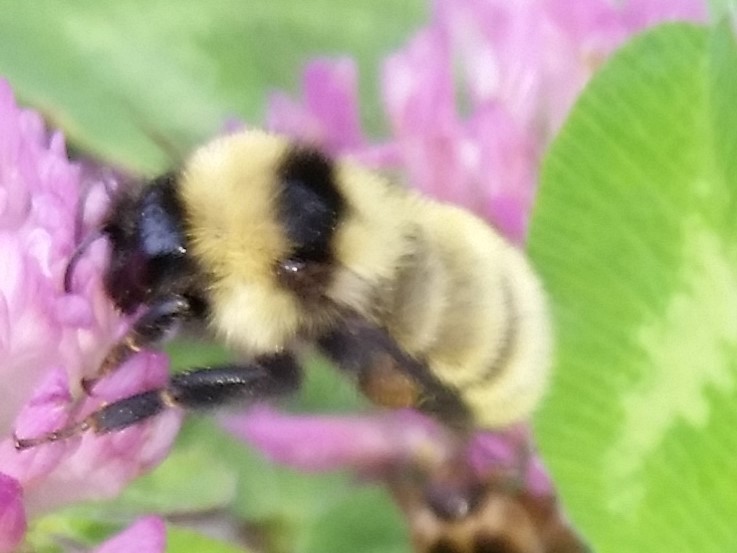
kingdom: Animalia
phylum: Arthropoda
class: Insecta
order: Hymenoptera
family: Apidae
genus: Bombus
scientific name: Bombus fervidus
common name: Yellow bumble bee
